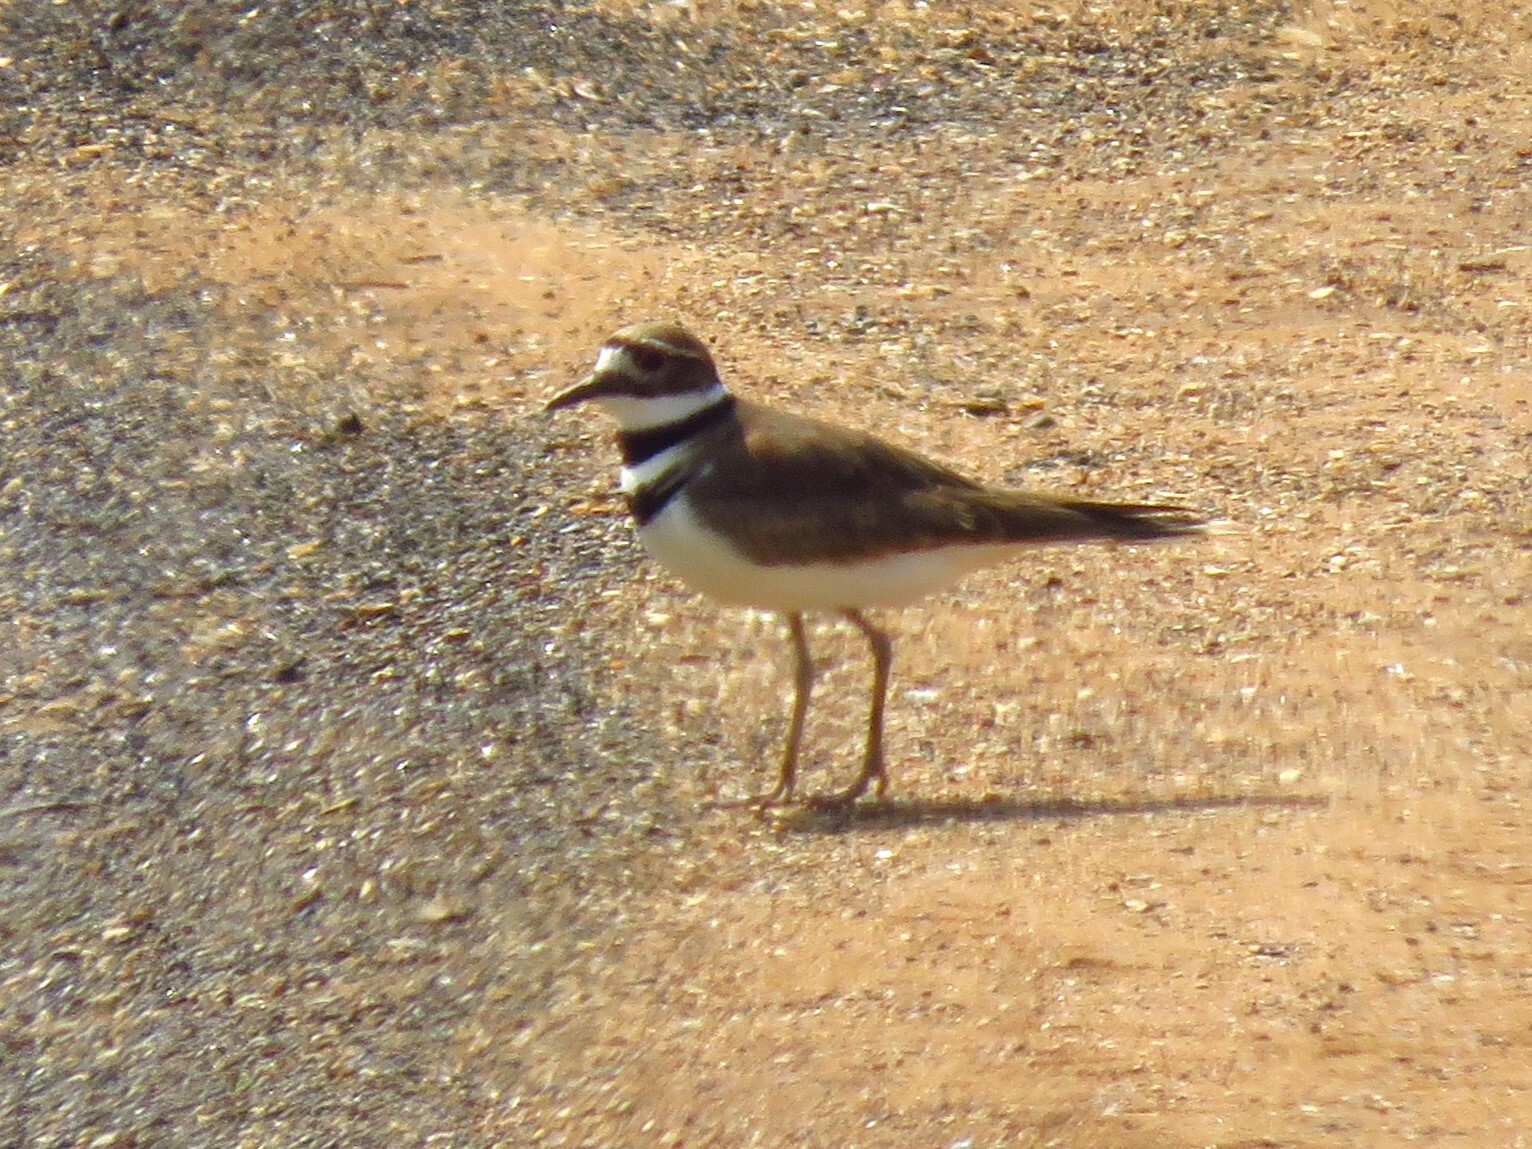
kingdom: Animalia
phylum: Chordata
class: Aves
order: Charadriiformes
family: Charadriidae
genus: Charadrius
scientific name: Charadrius vociferus
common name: Killdeer
